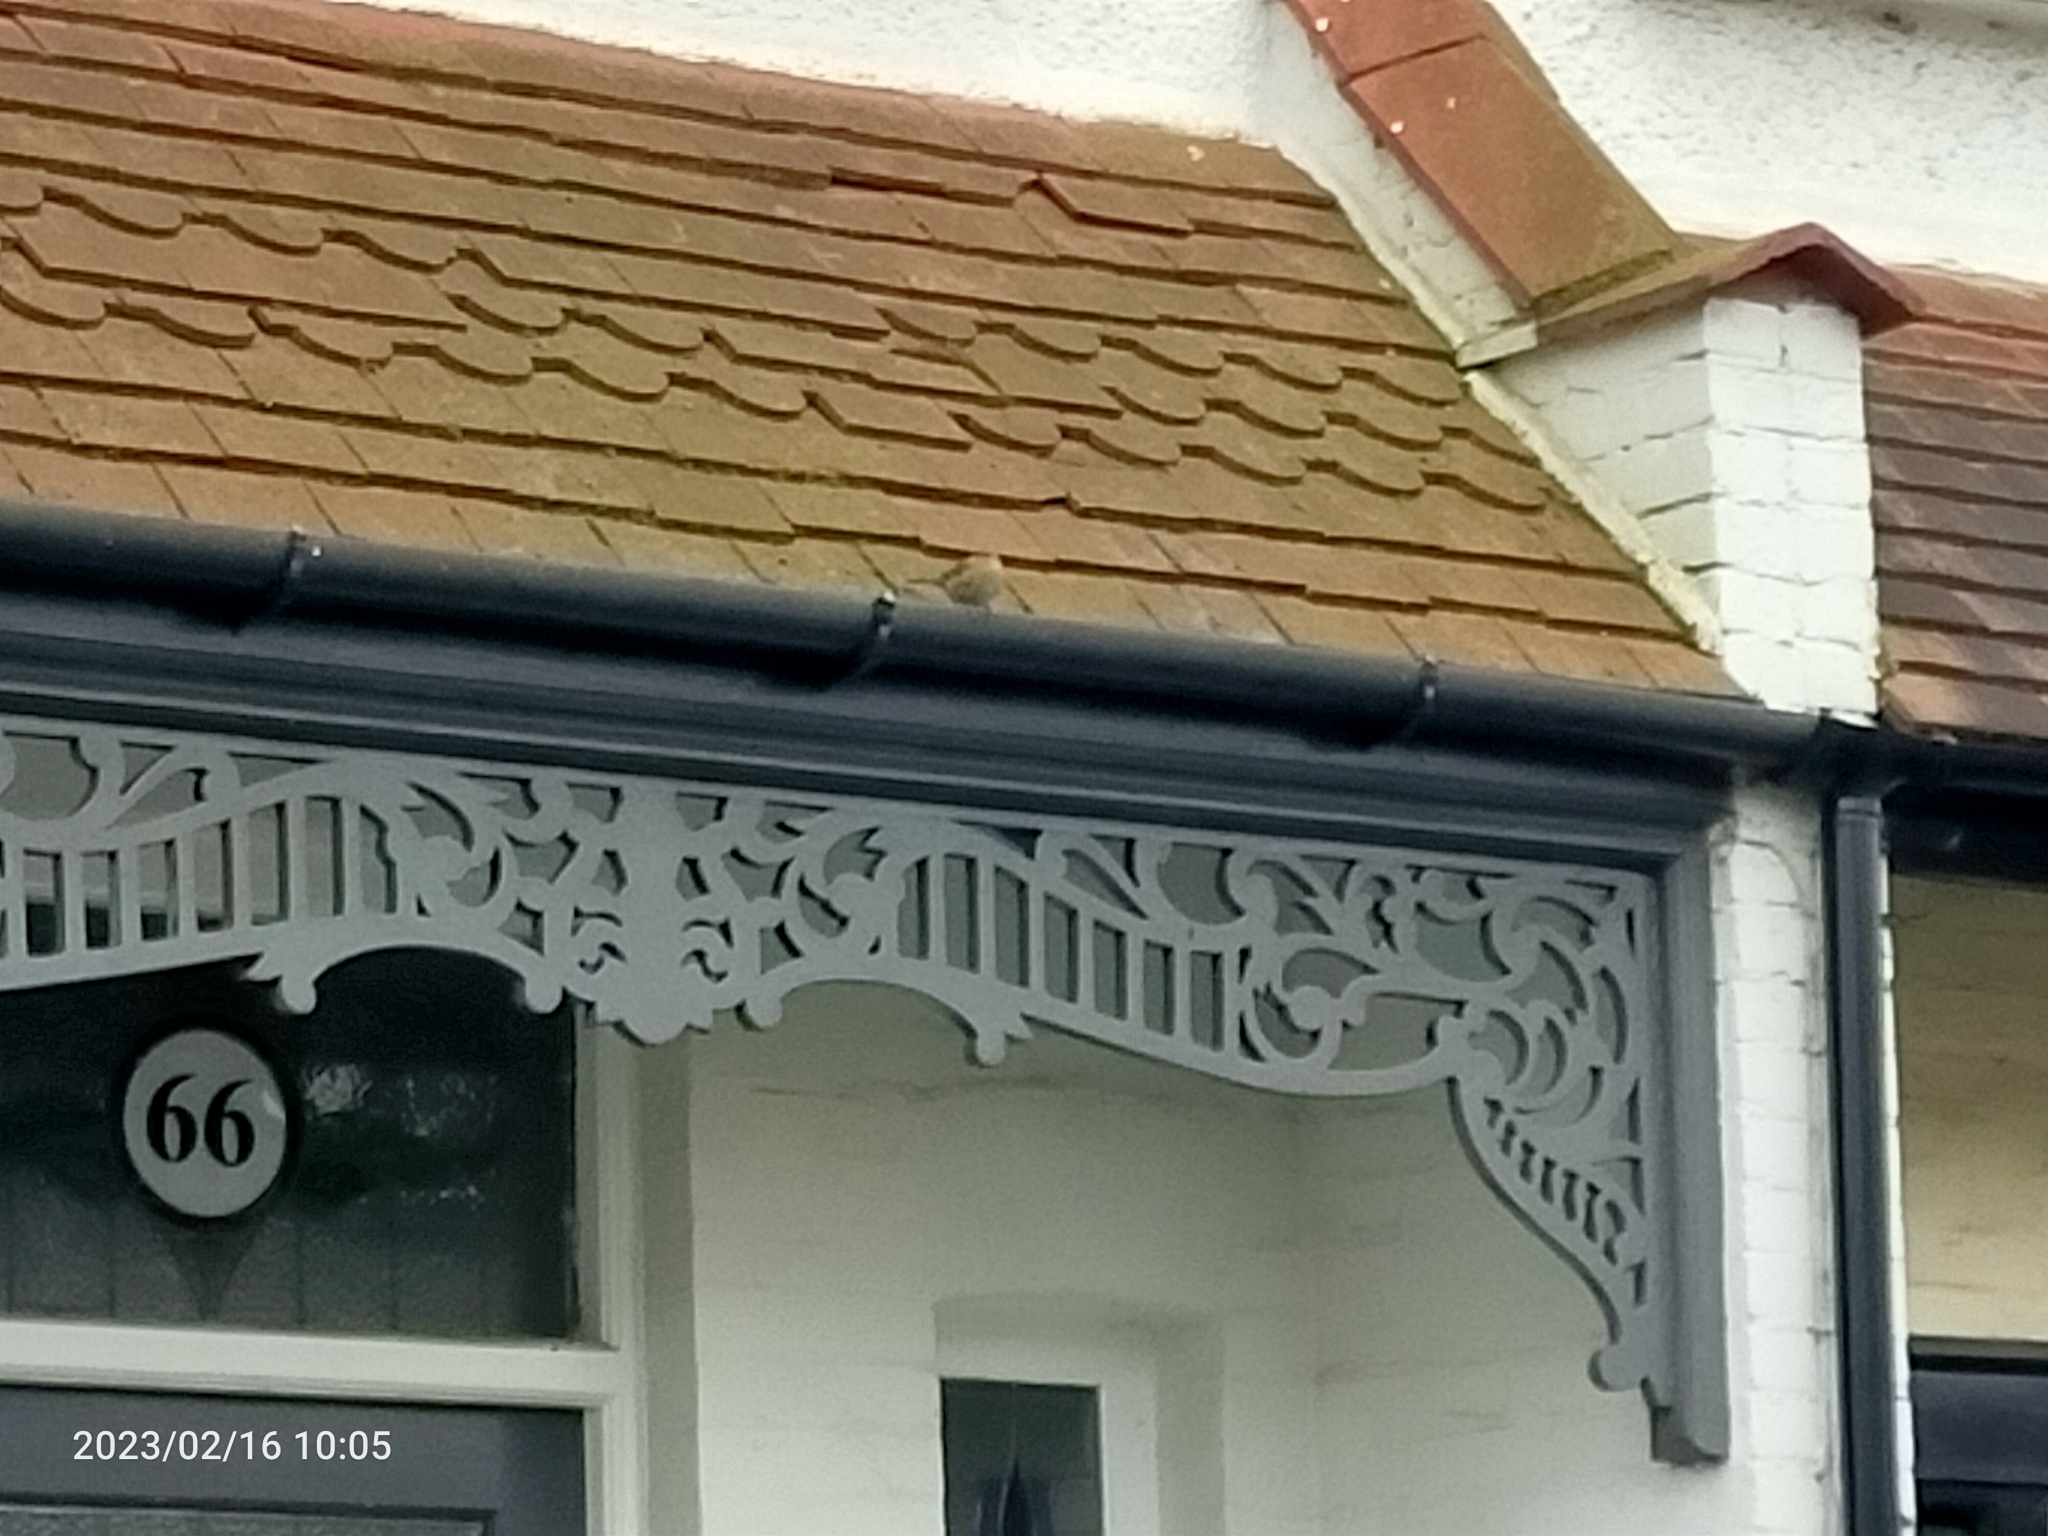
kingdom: Animalia
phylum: Chordata
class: Aves
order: Passeriformes
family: Prunellidae
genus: Prunella
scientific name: Prunella modularis
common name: Dunnock
